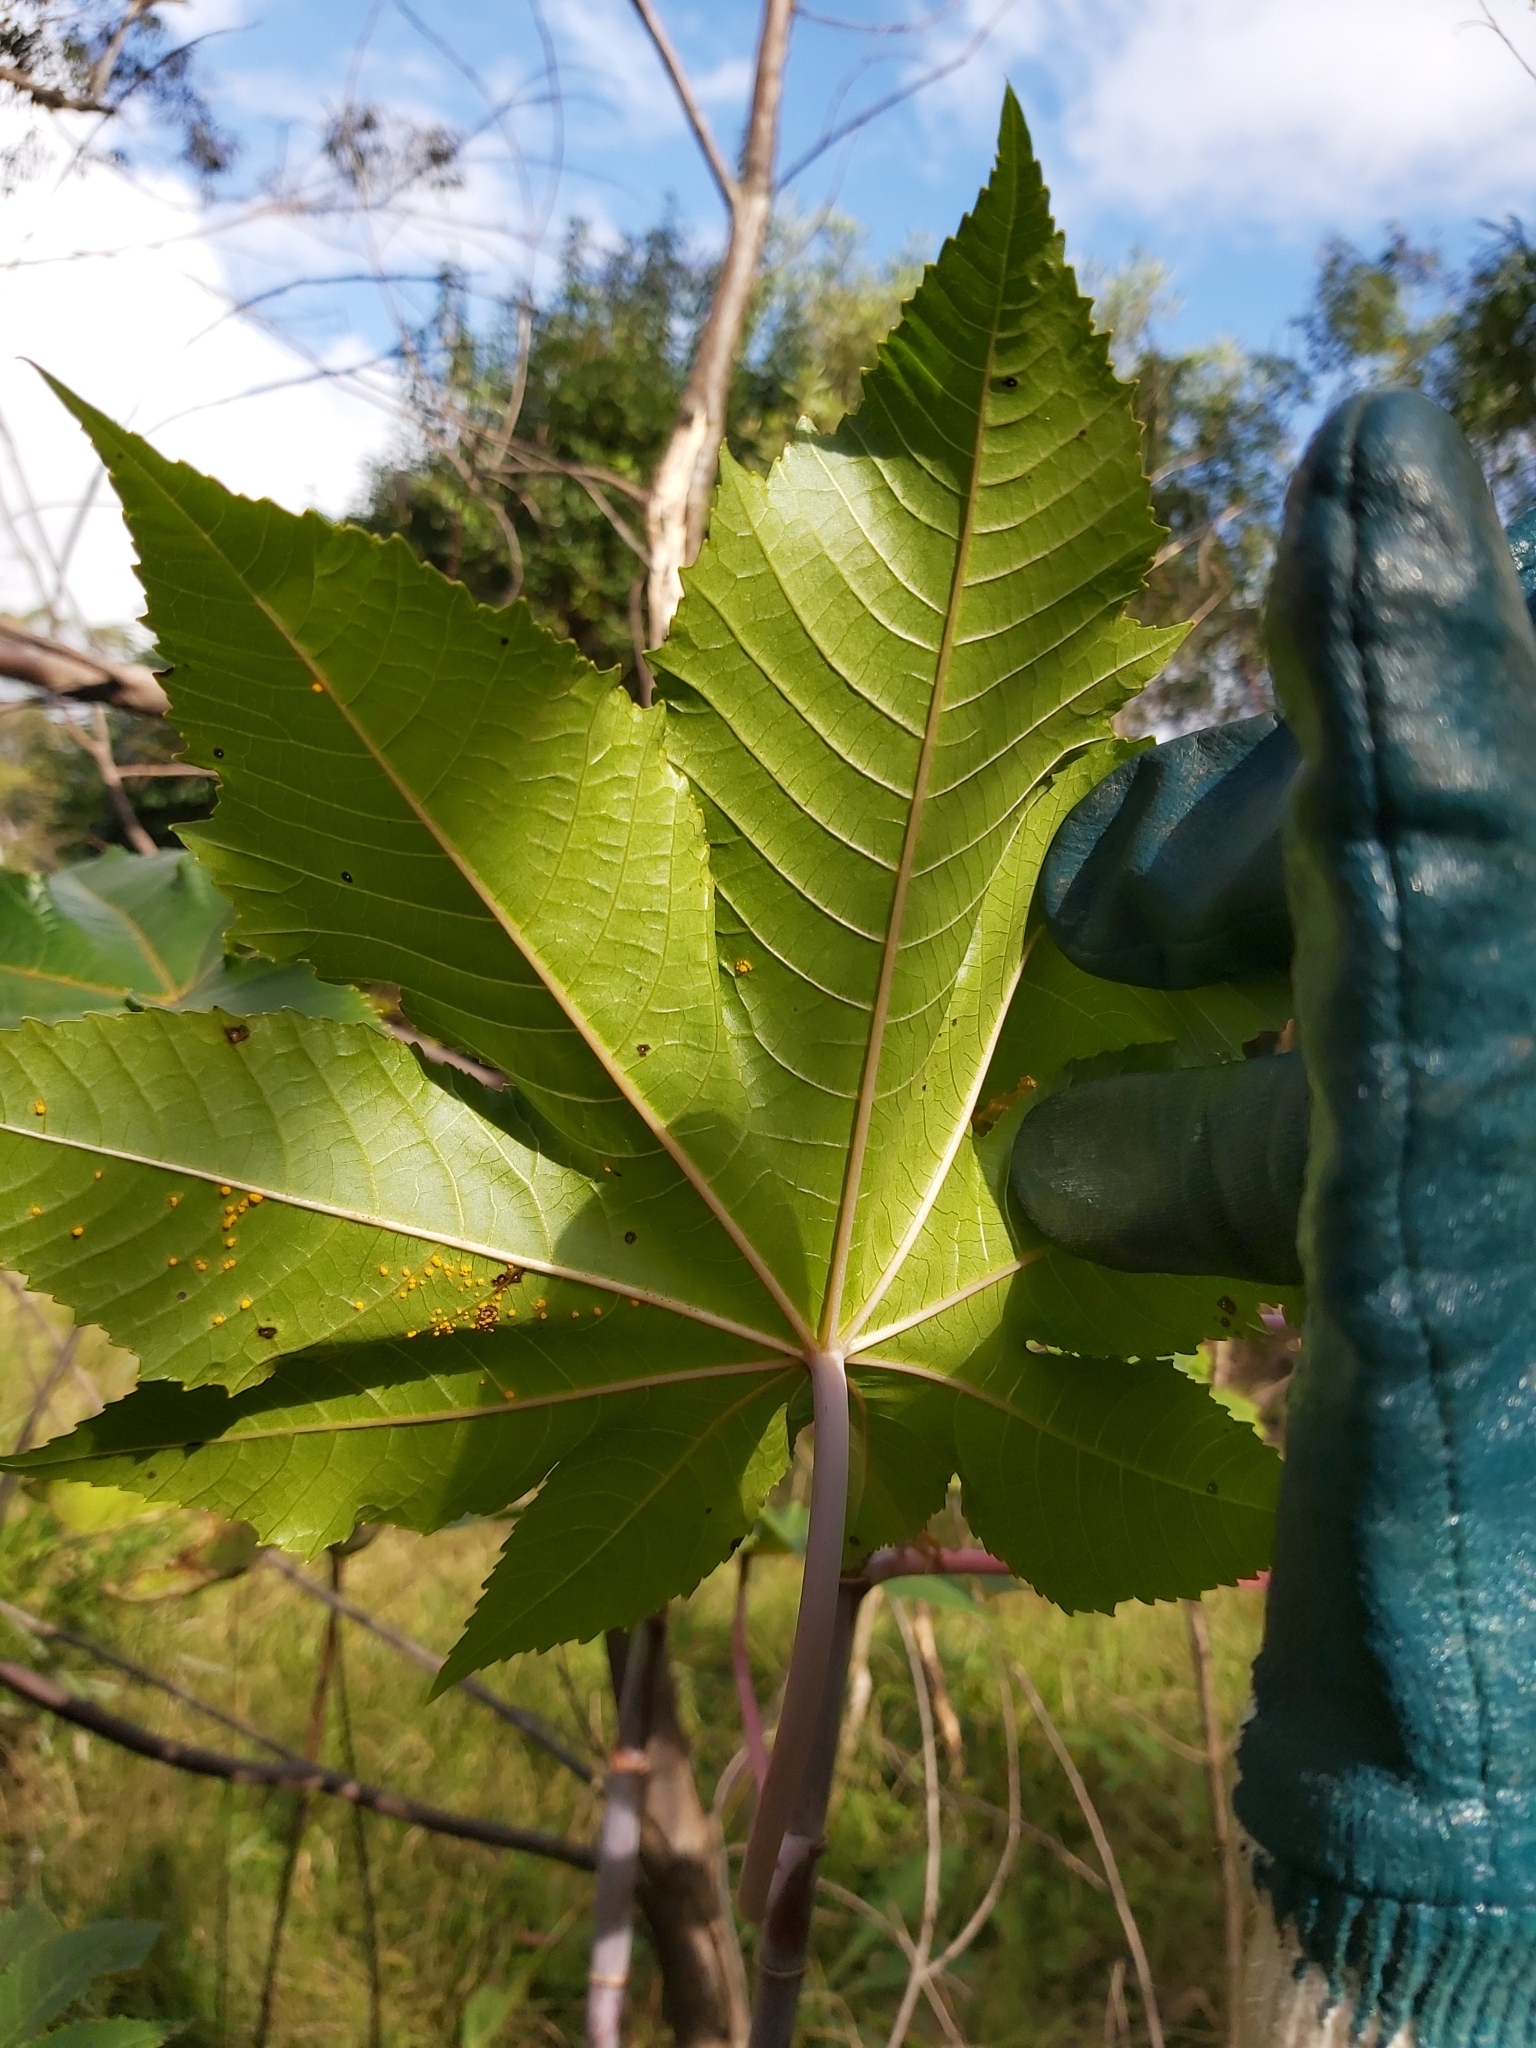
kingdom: Plantae
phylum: Tracheophyta
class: Magnoliopsida
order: Malpighiales
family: Euphorbiaceae
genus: Ricinus
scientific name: Ricinus communis
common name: Castor-oil-plant
